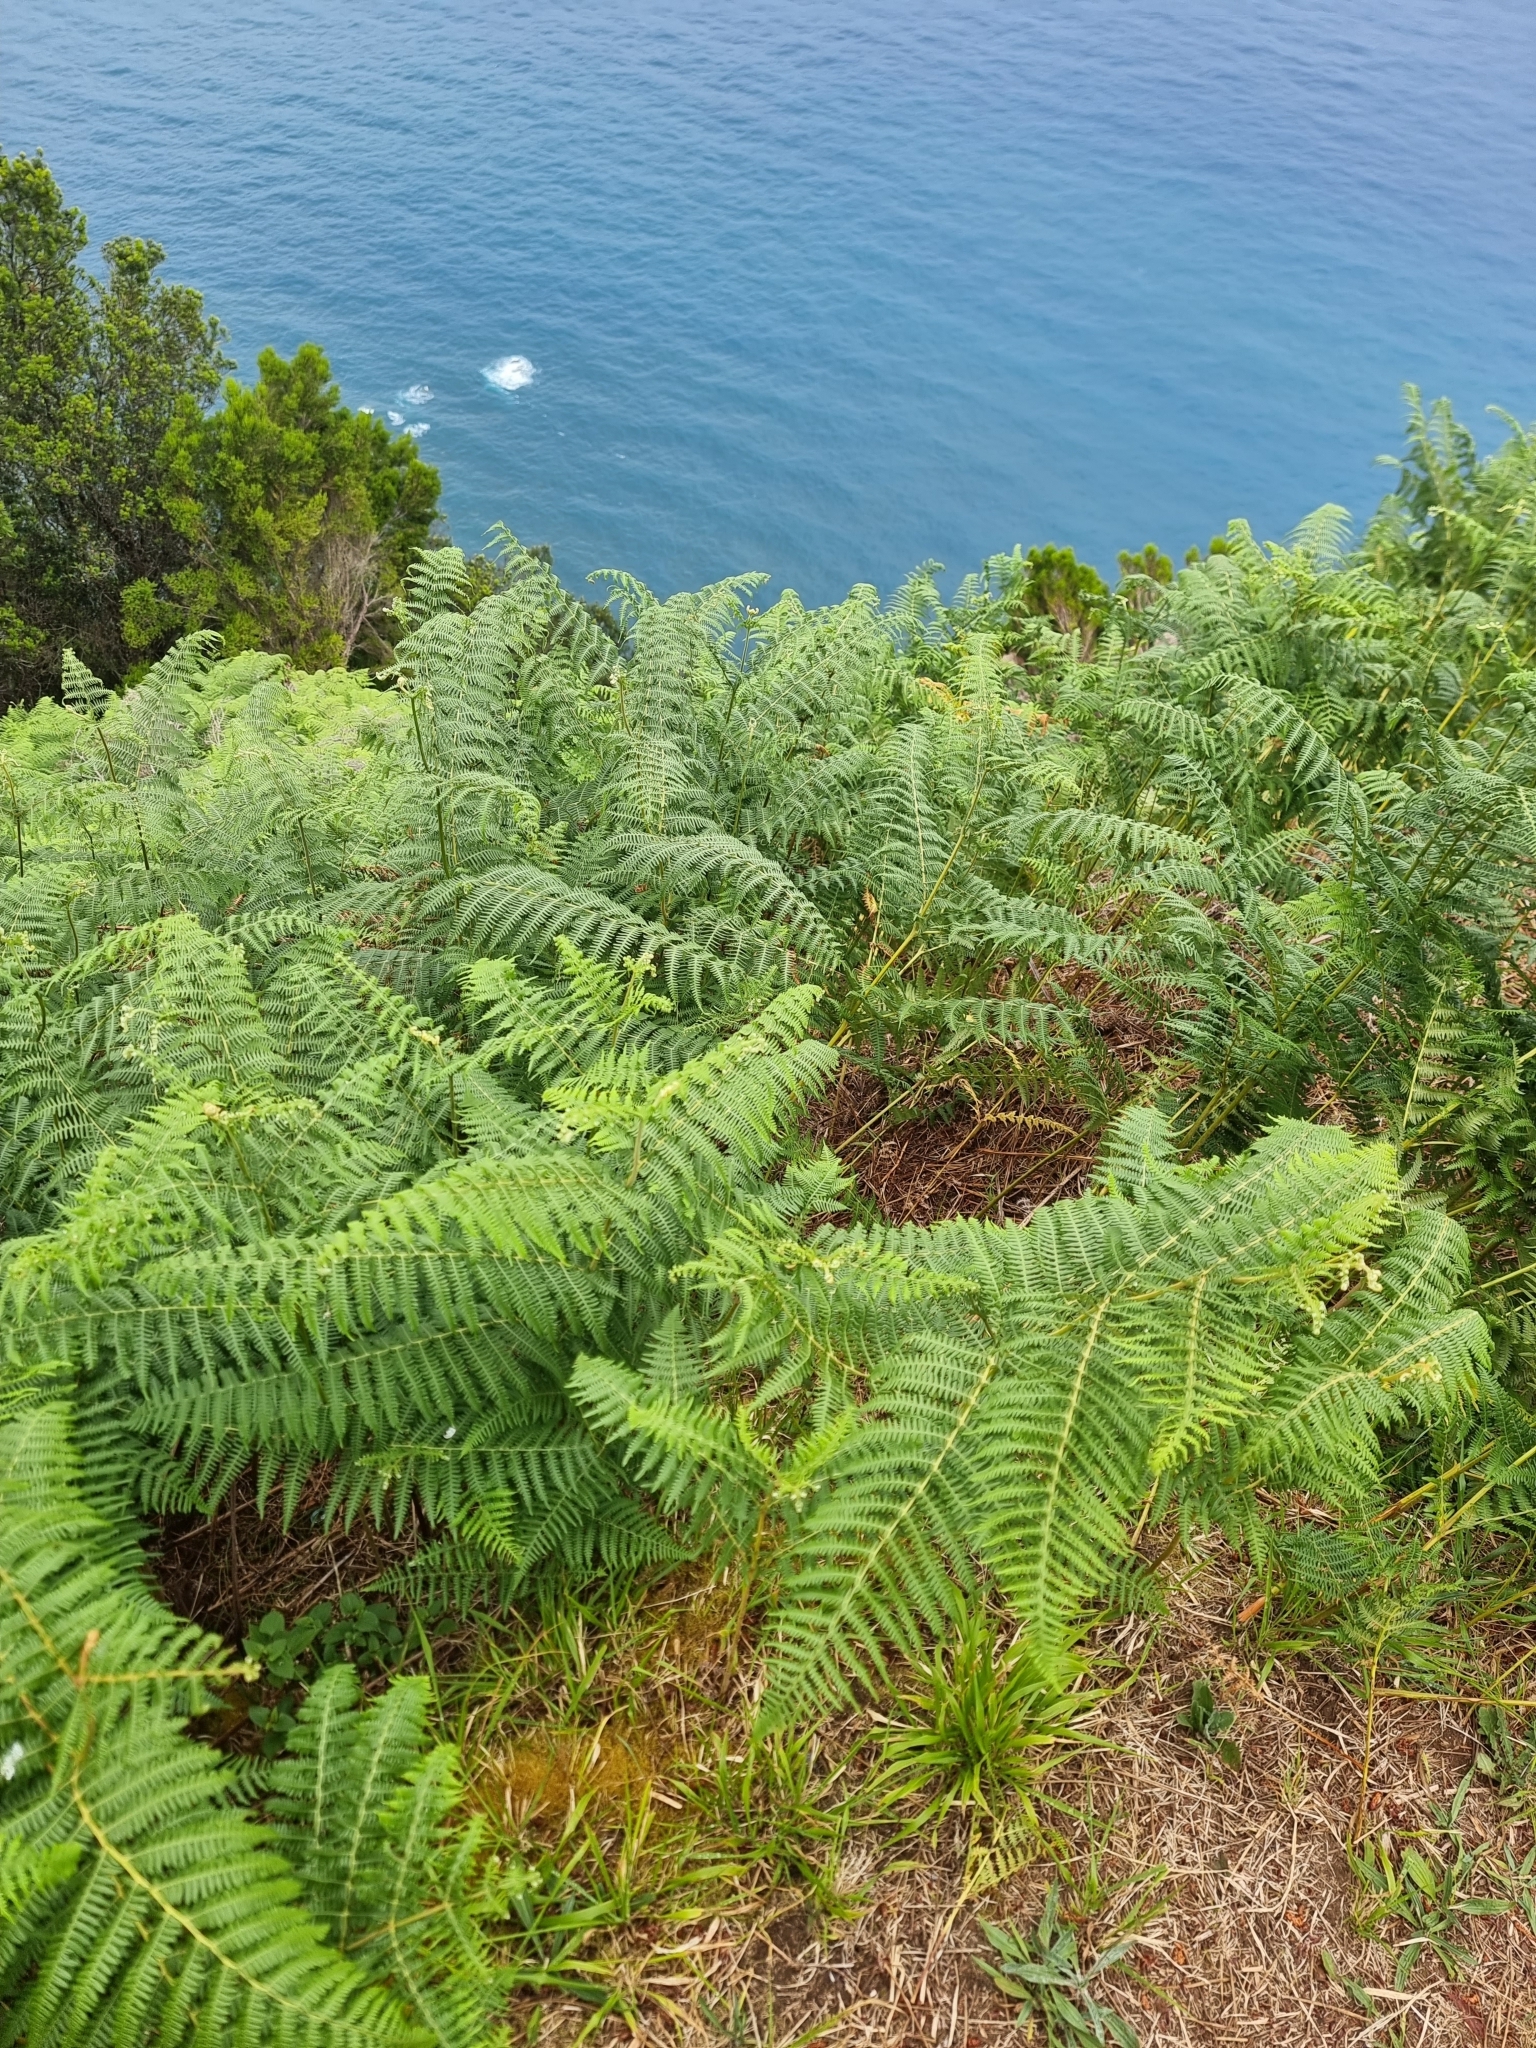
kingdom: Plantae
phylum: Tracheophyta
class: Polypodiopsida
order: Polypodiales
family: Dennstaedtiaceae
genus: Pteridium
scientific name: Pteridium aquilinum
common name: Bracken
